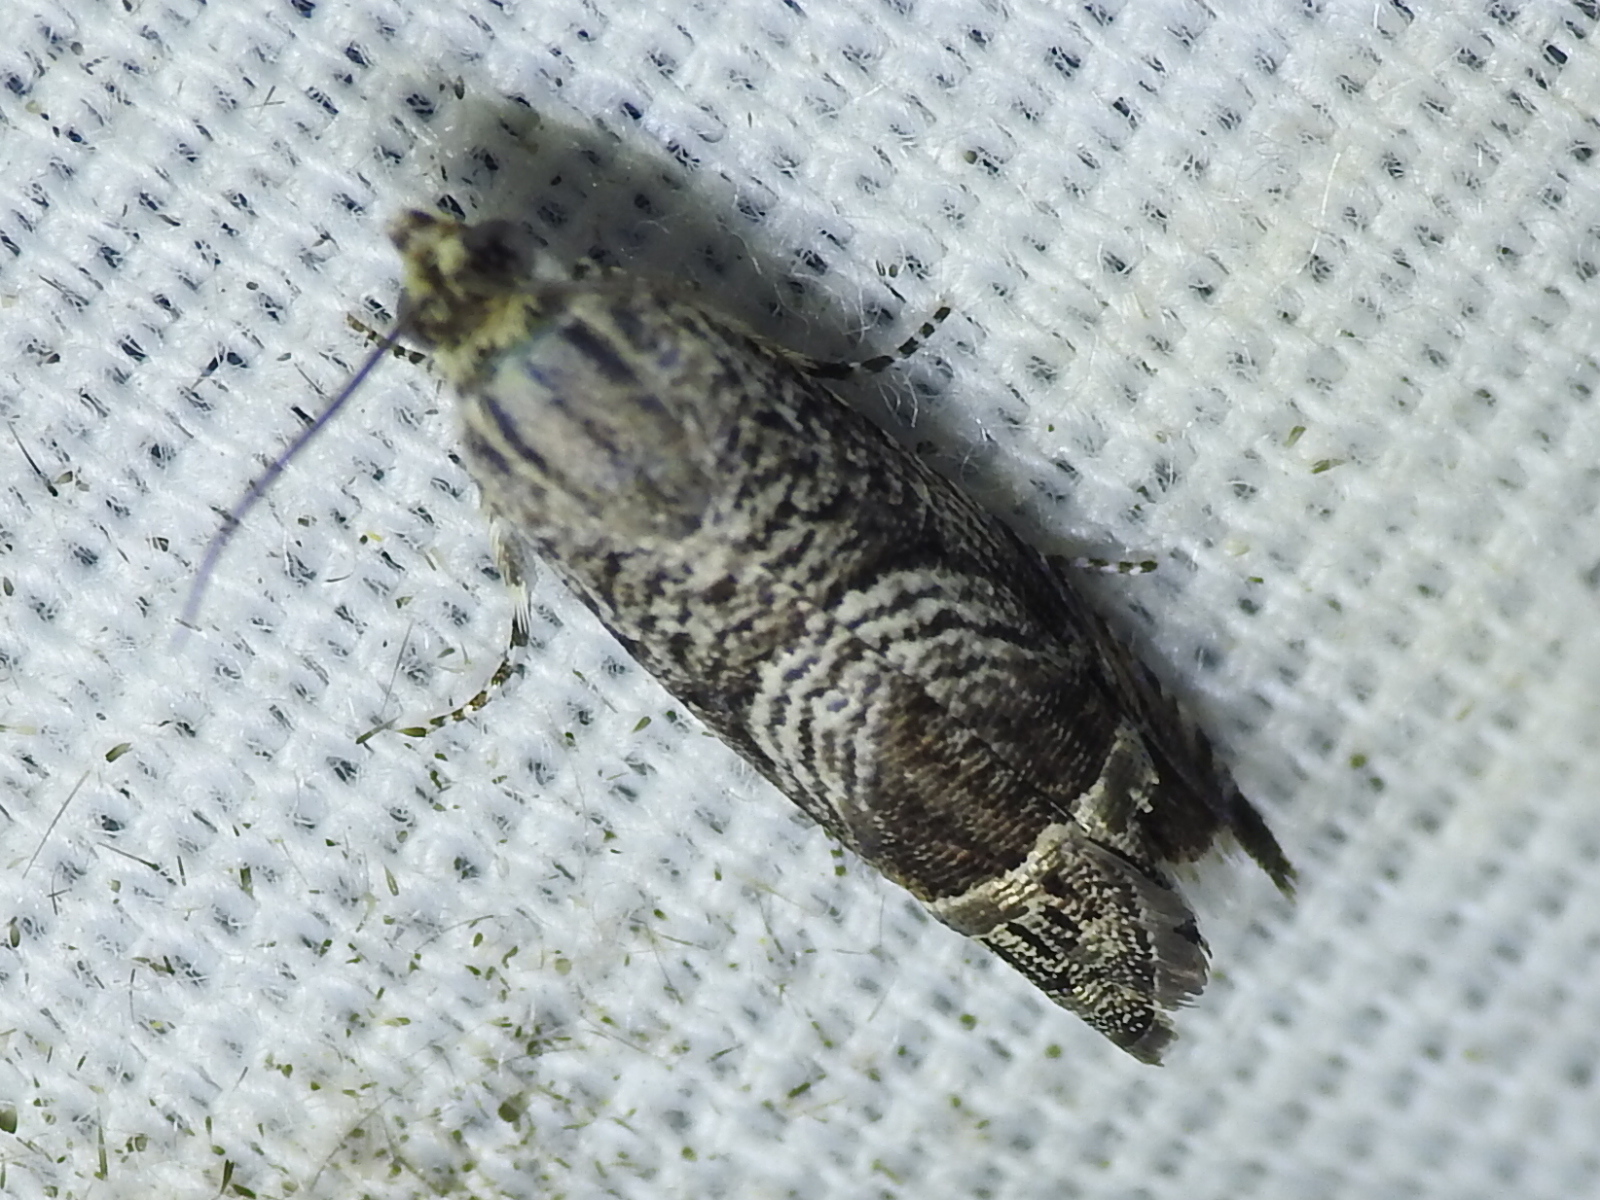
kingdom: Animalia
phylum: Arthropoda
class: Insecta
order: Lepidoptera
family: Tortricidae
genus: Ofatulena
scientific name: Ofatulena duodecemstriata
